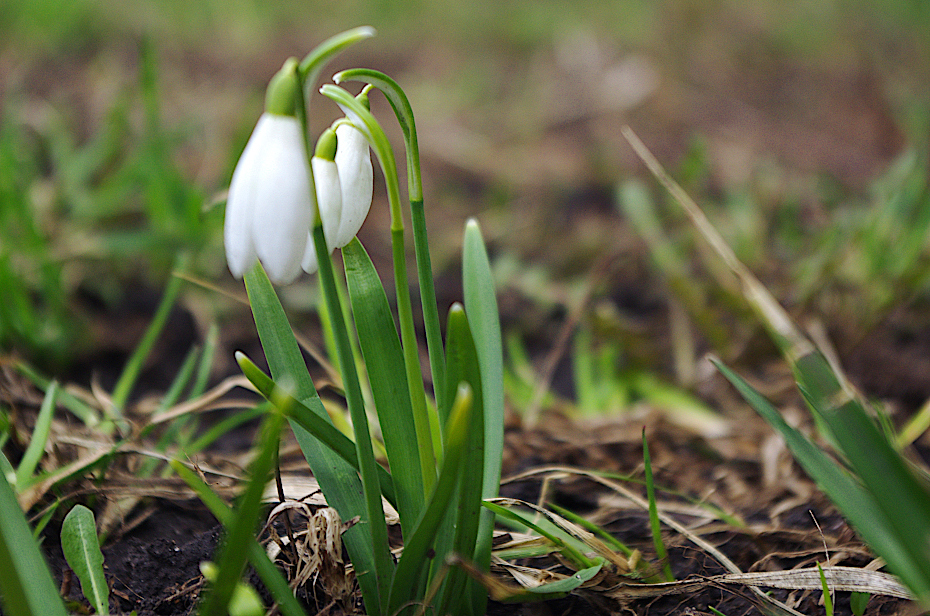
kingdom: Plantae
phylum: Tracheophyta
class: Liliopsida
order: Asparagales
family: Amaryllidaceae
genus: Galanthus
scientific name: Galanthus nivalis
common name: Snowdrop
